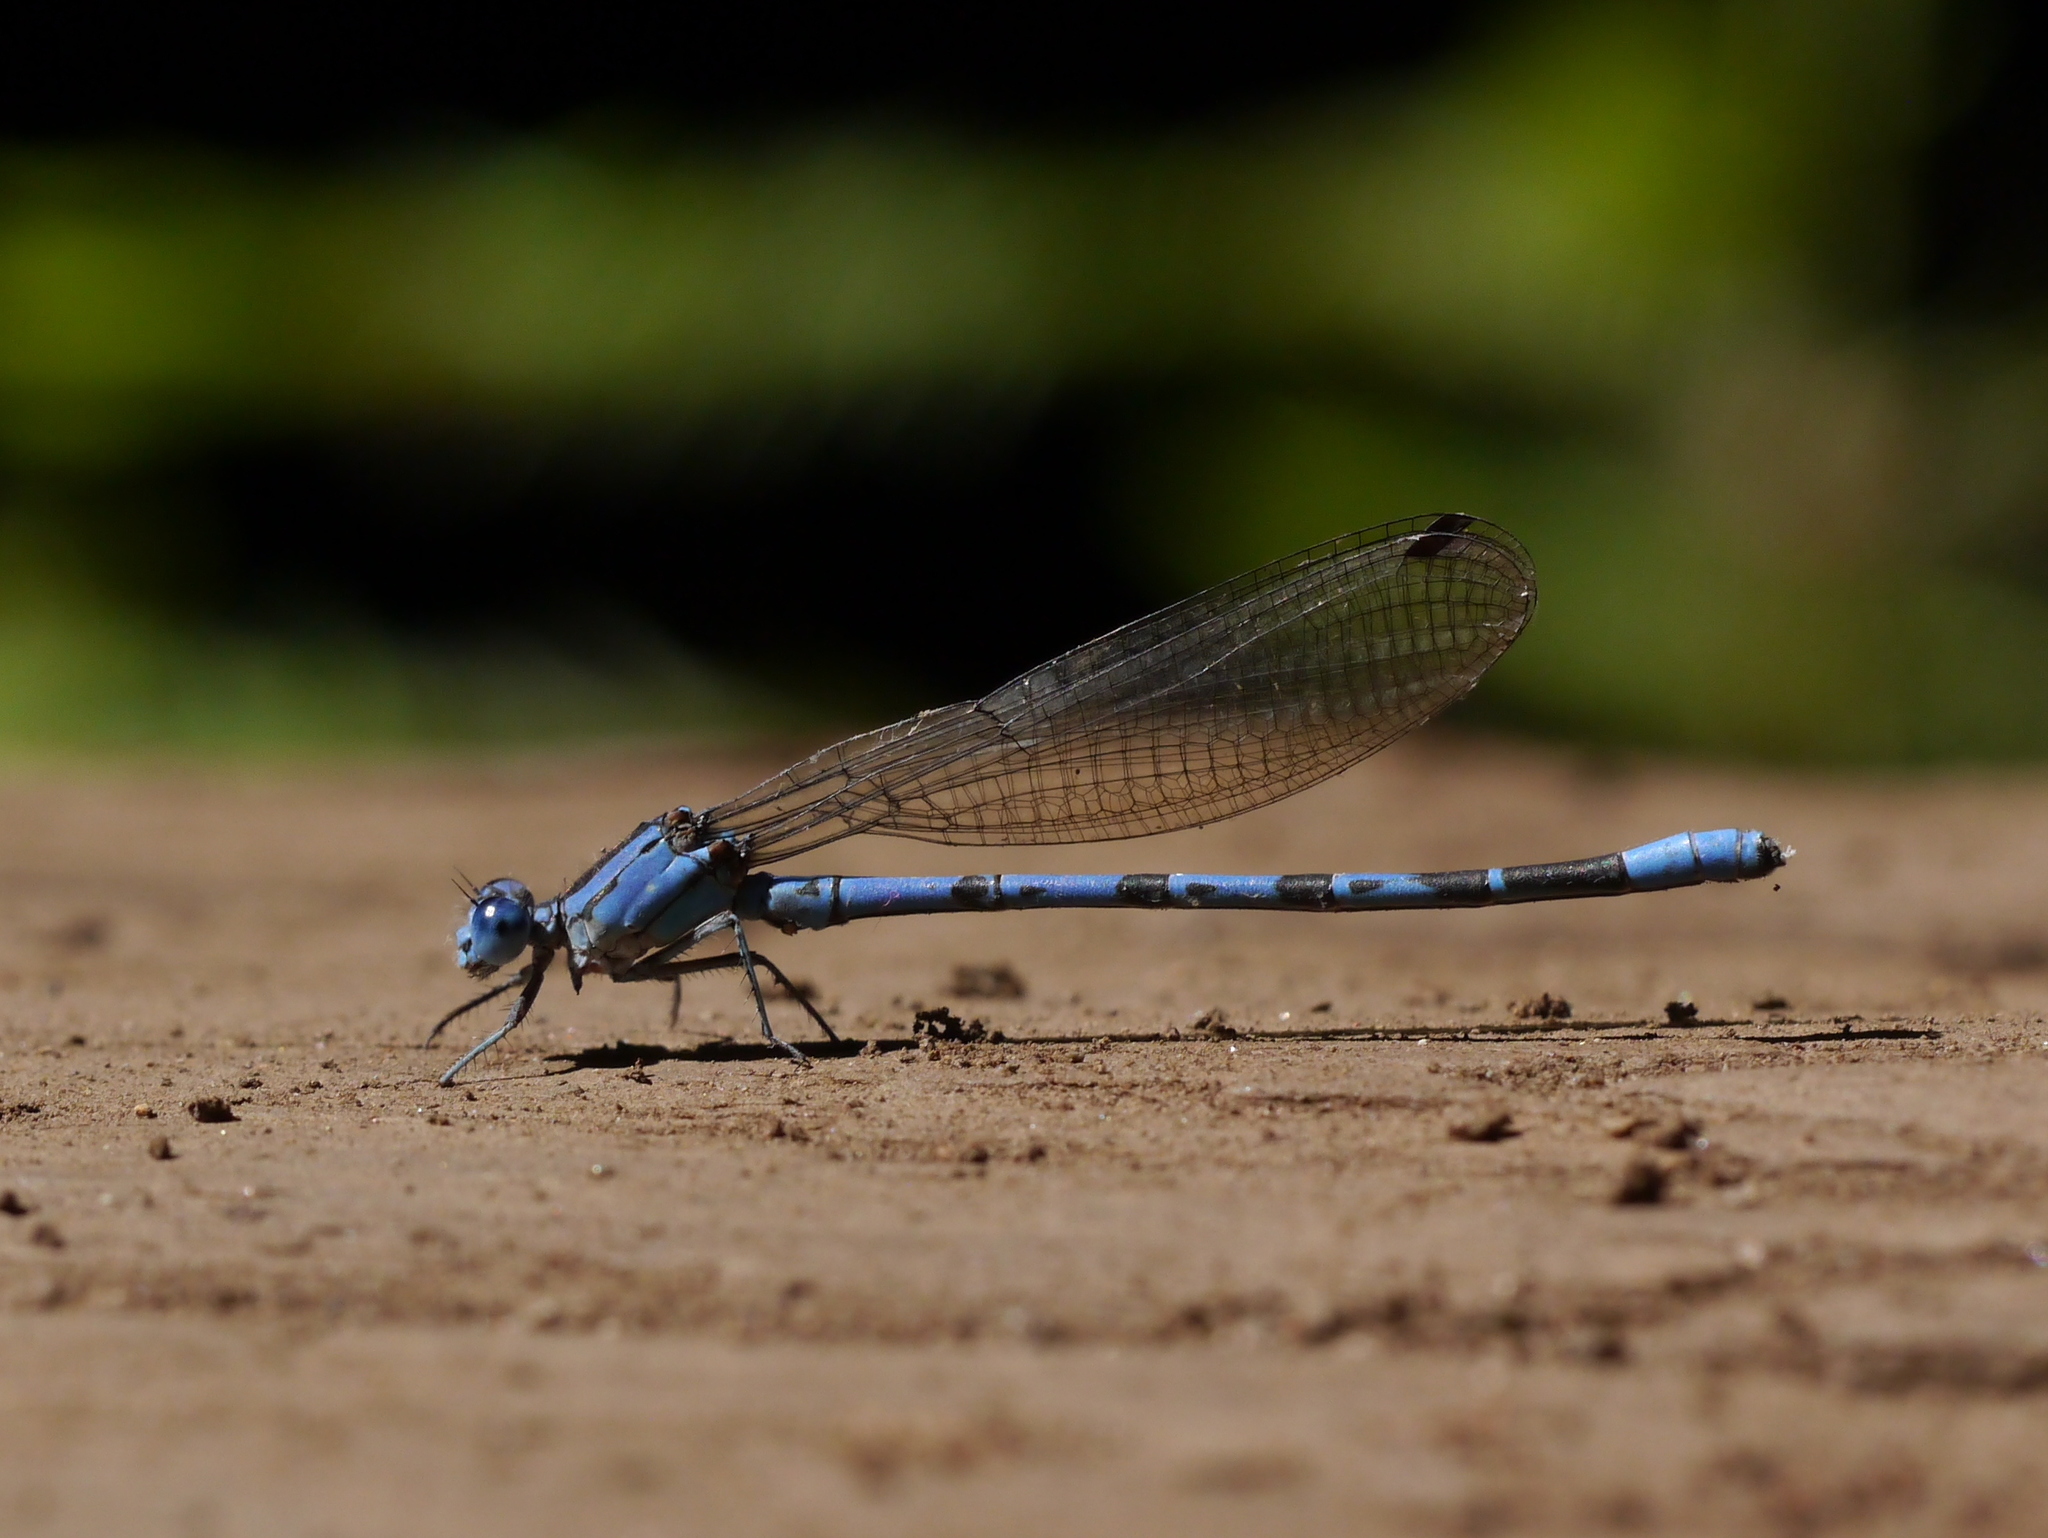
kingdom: Animalia
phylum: Arthropoda
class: Insecta
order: Odonata
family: Coenagrionidae
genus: Argia
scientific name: Argia vivida
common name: Vivid dancer
